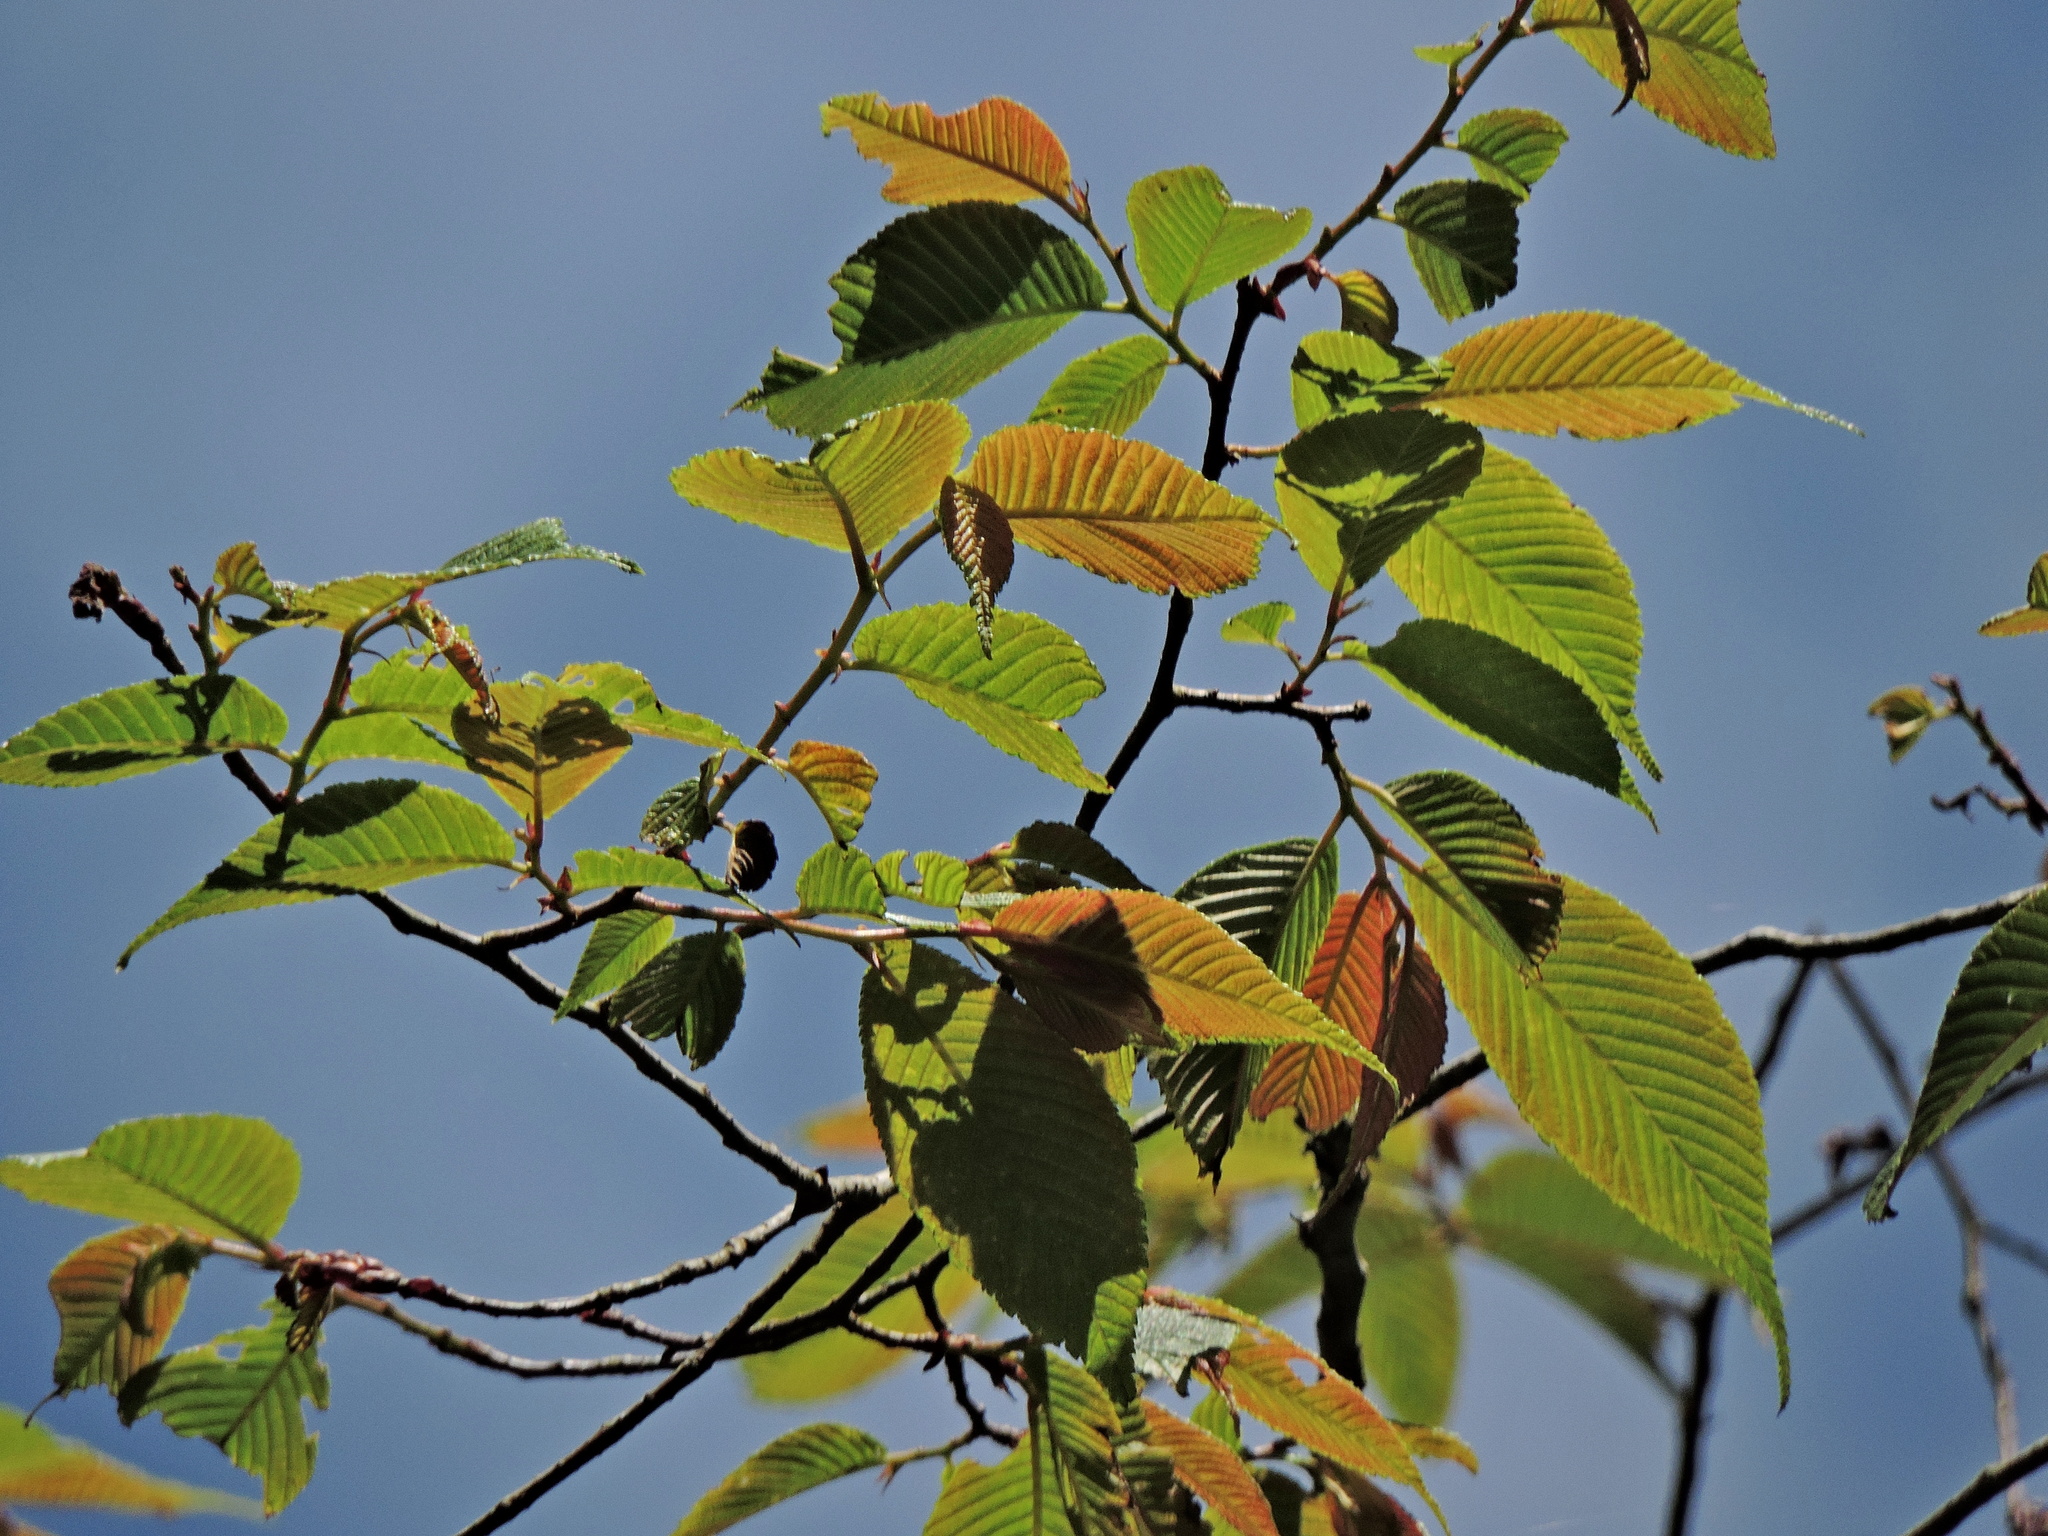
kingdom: Plantae
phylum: Tracheophyta
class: Magnoliopsida
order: Rosales
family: Ulmaceae
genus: Ulmus
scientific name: Ulmus uyematsui
